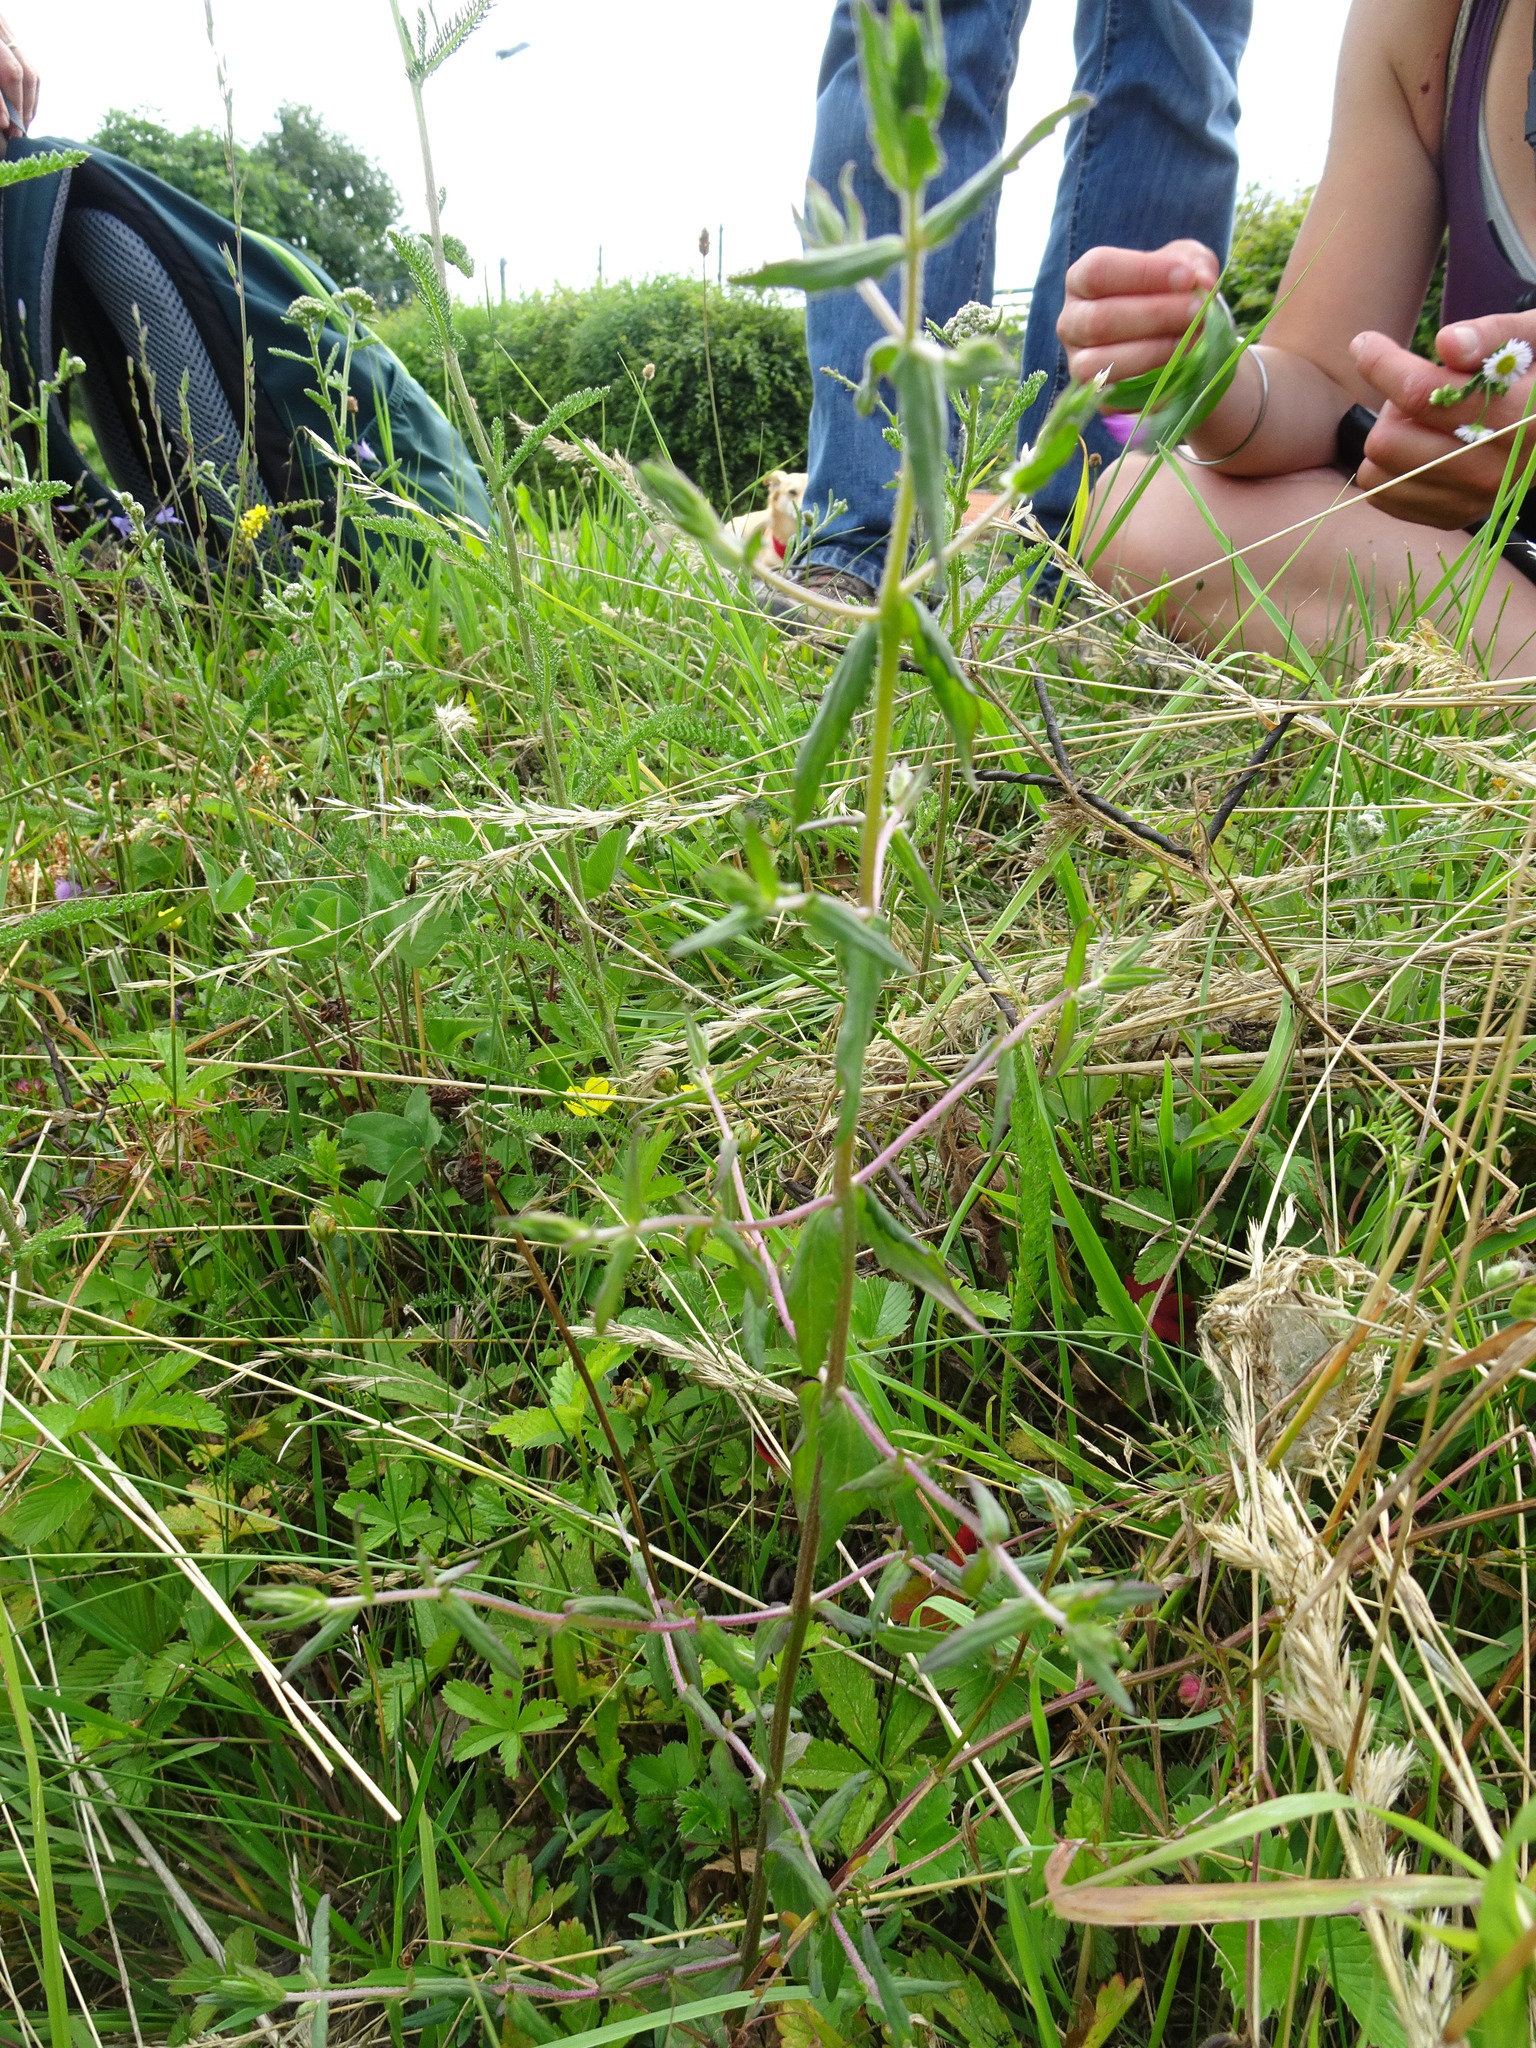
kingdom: Plantae
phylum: Tracheophyta
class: Magnoliopsida
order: Lamiales
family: Orobanchaceae
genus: Odontites
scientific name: Odontites vulgaris
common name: Broomrape
